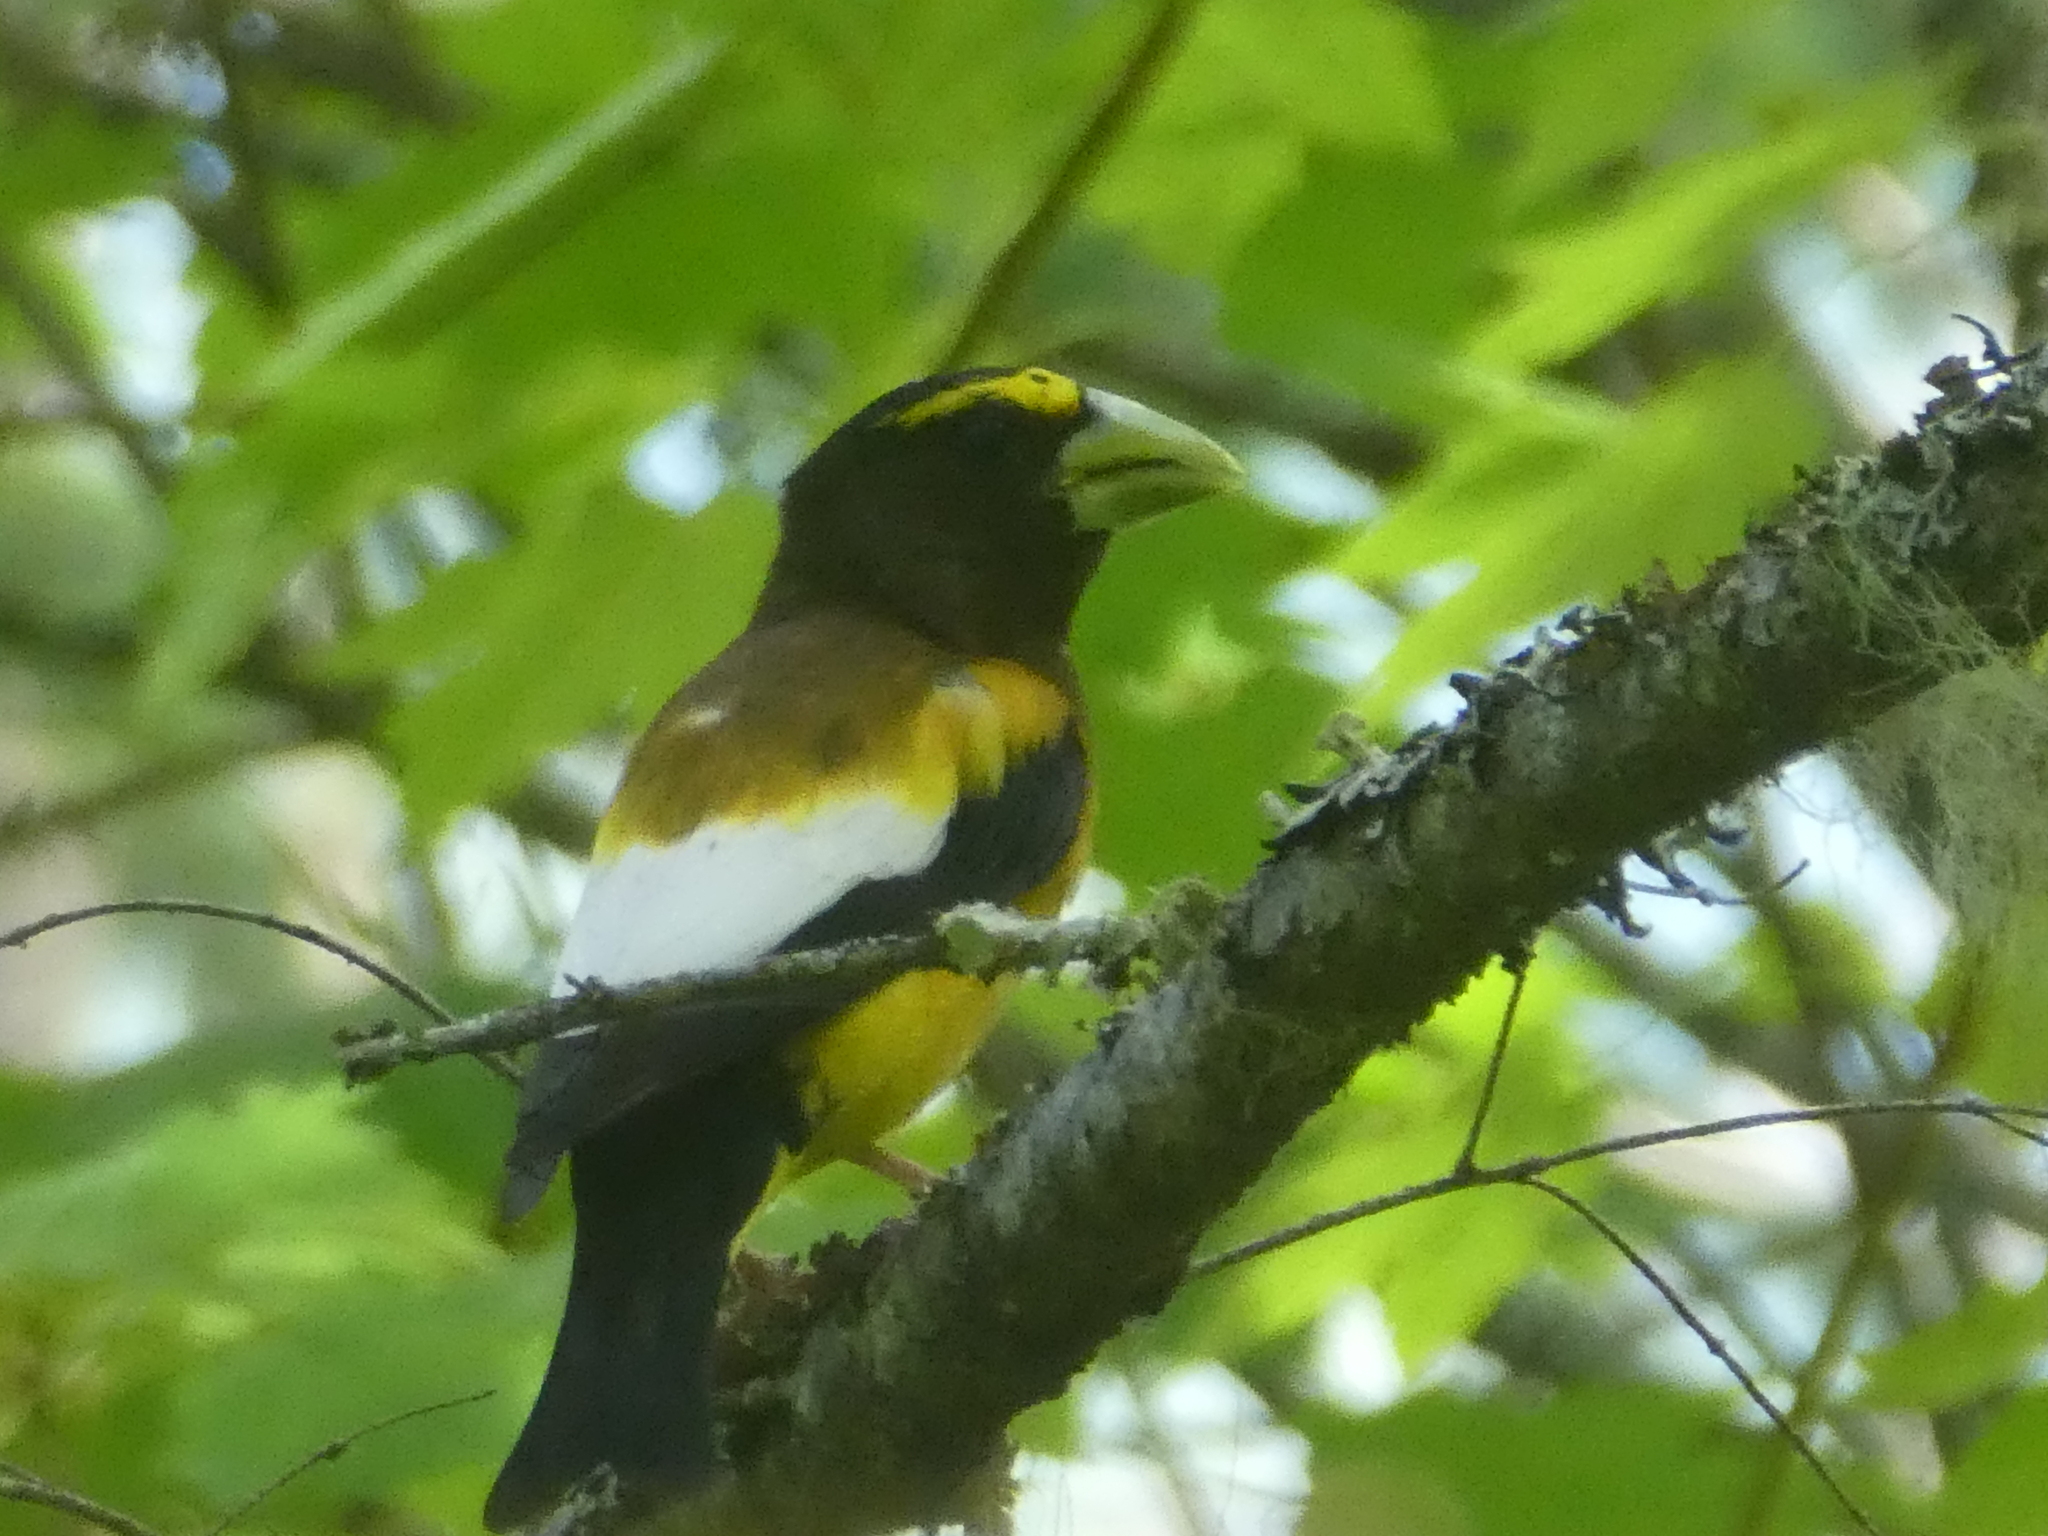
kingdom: Animalia
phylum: Chordata
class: Aves
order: Passeriformes
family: Fringillidae
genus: Hesperiphona
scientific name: Hesperiphona vespertina
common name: Evening grosbeak
